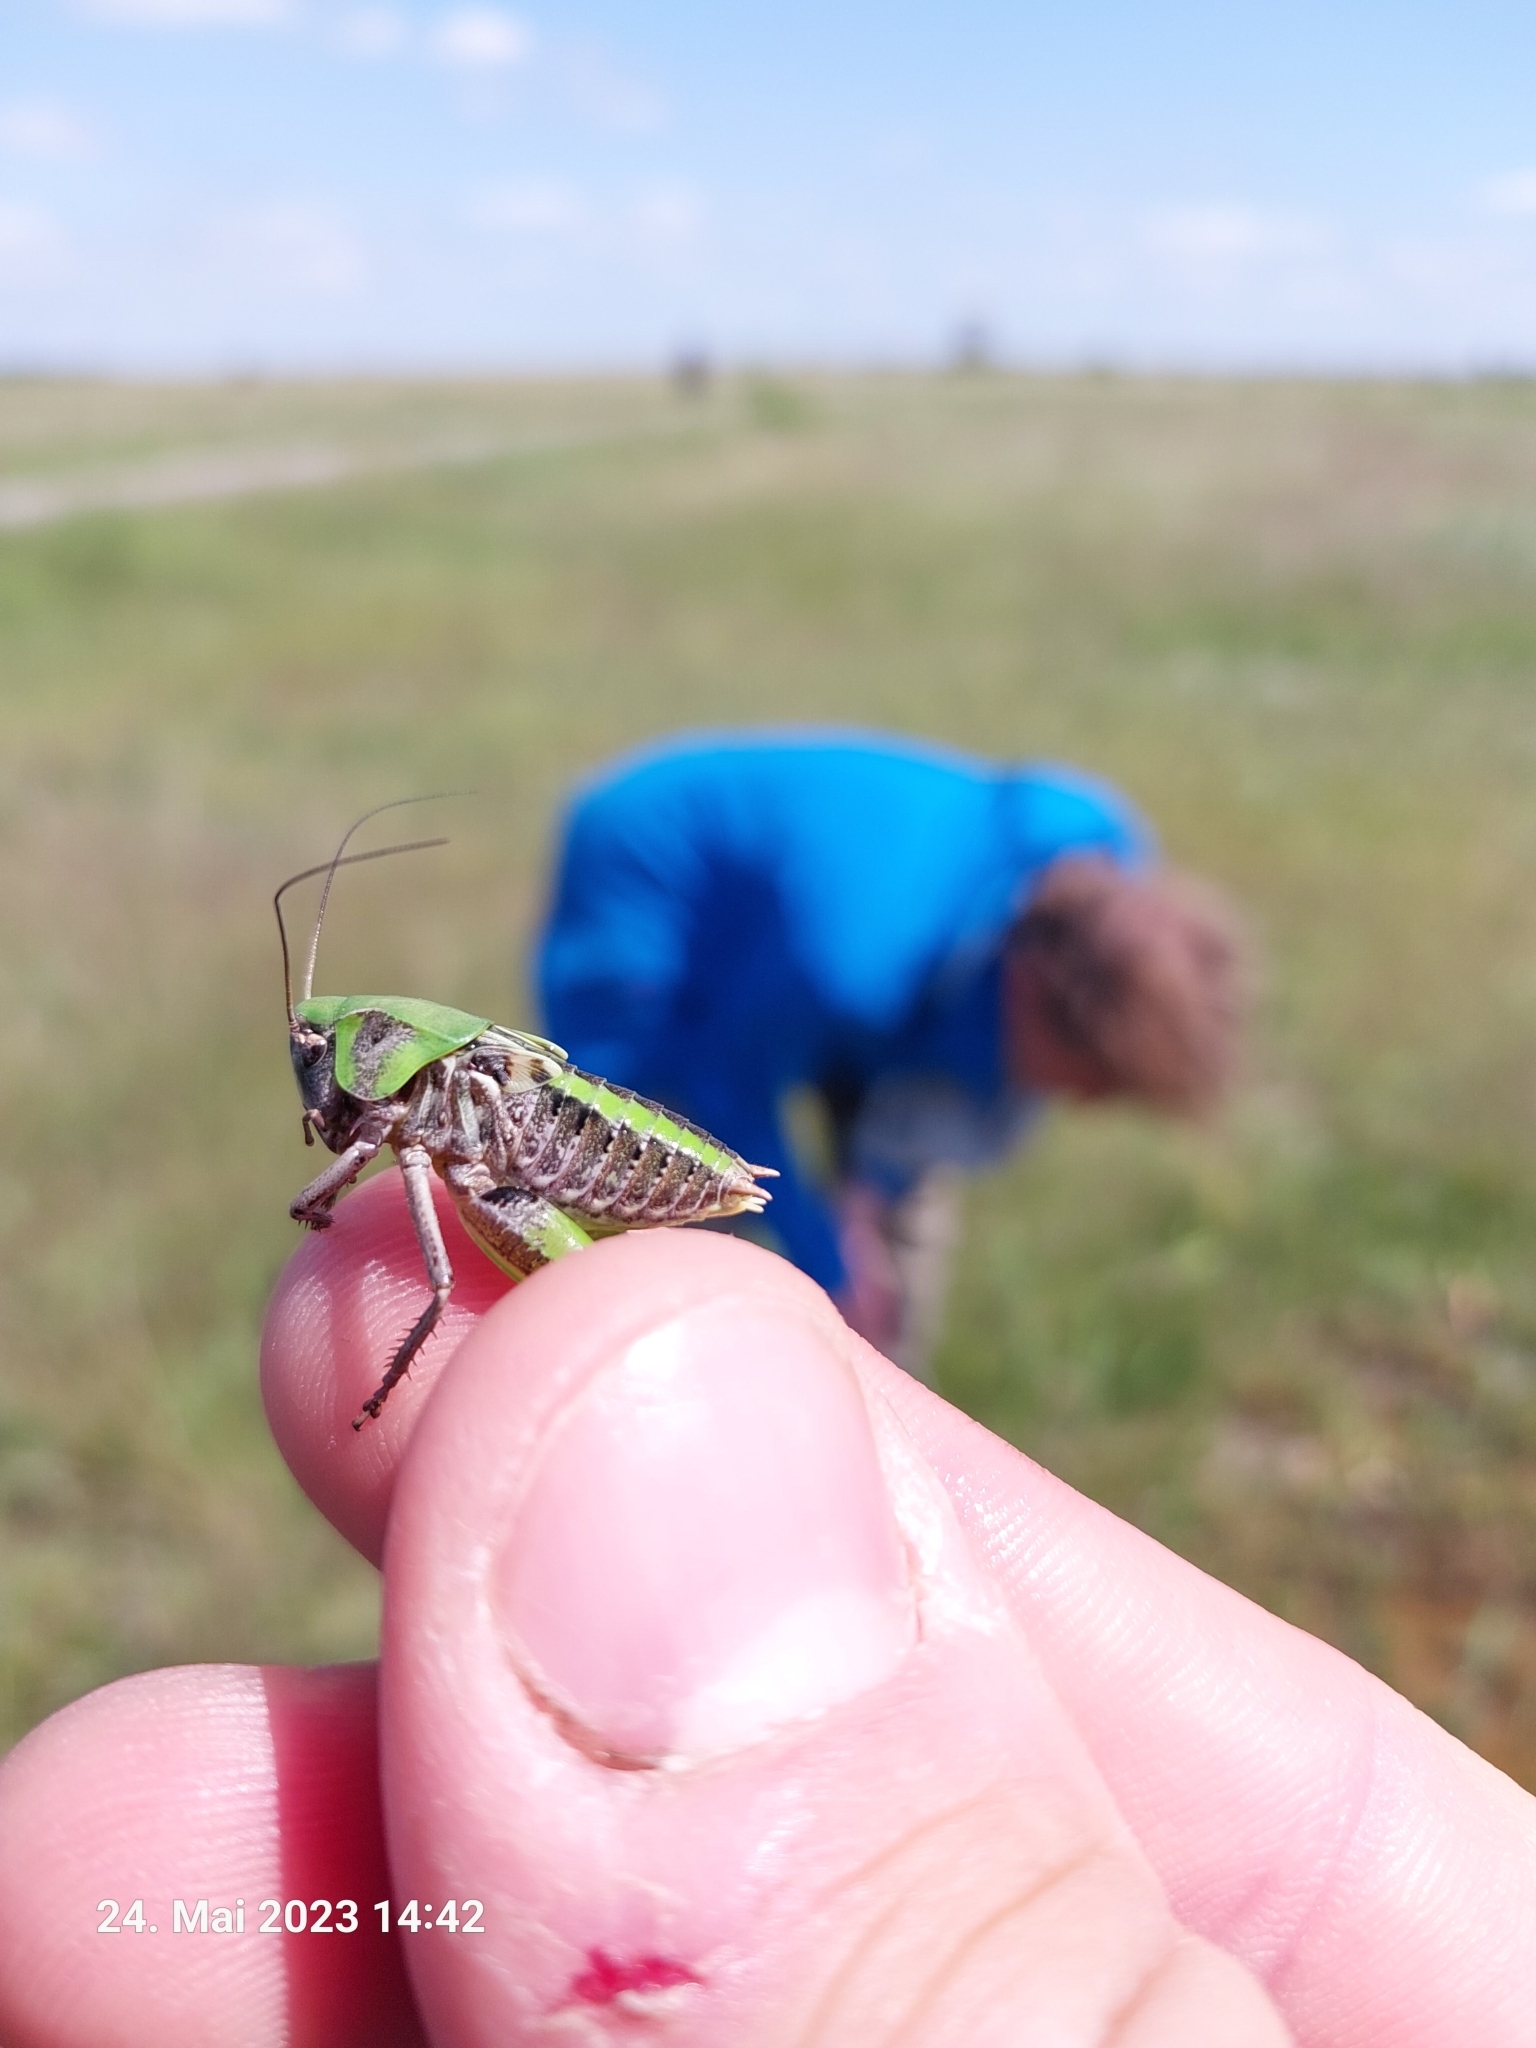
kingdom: Animalia
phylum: Arthropoda
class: Insecta
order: Orthoptera
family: Tettigoniidae
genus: Decticus
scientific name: Decticus verrucivorus
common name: Wart-biter
